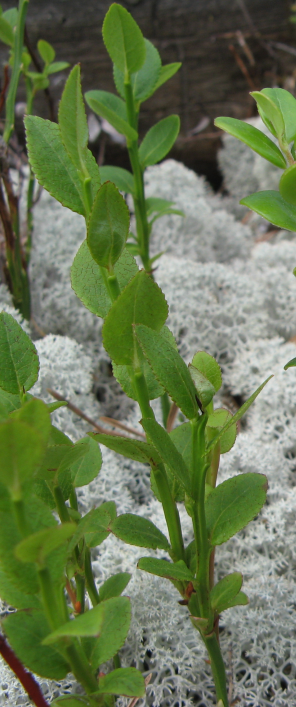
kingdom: Plantae
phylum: Tracheophyta
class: Magnoliopsida
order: Ericales
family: Ericaceae
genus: Vaccinium
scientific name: Vaccinium myrtillus
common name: Bilberry
